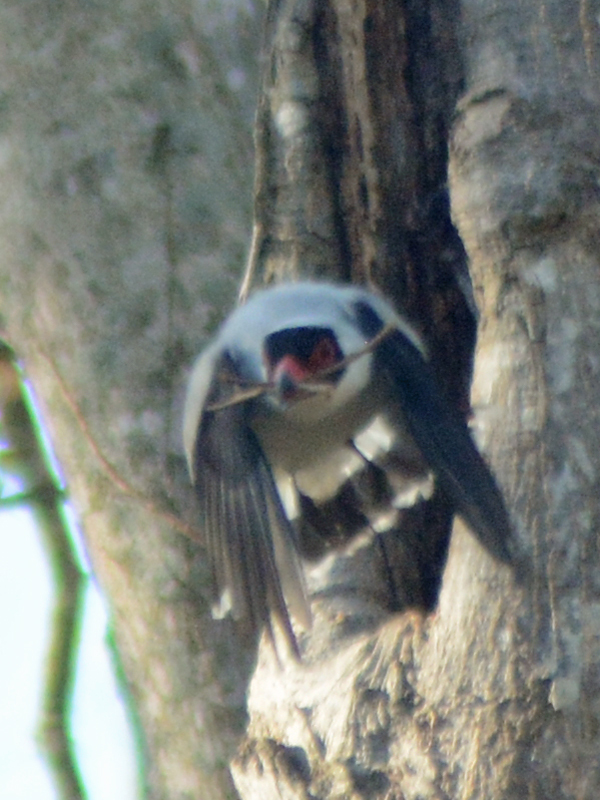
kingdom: Animalia
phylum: Chordata
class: Aves
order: Passeriformes
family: Cotingidae
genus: Tityra
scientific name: Tityra semifasciata
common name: Masked tityra
